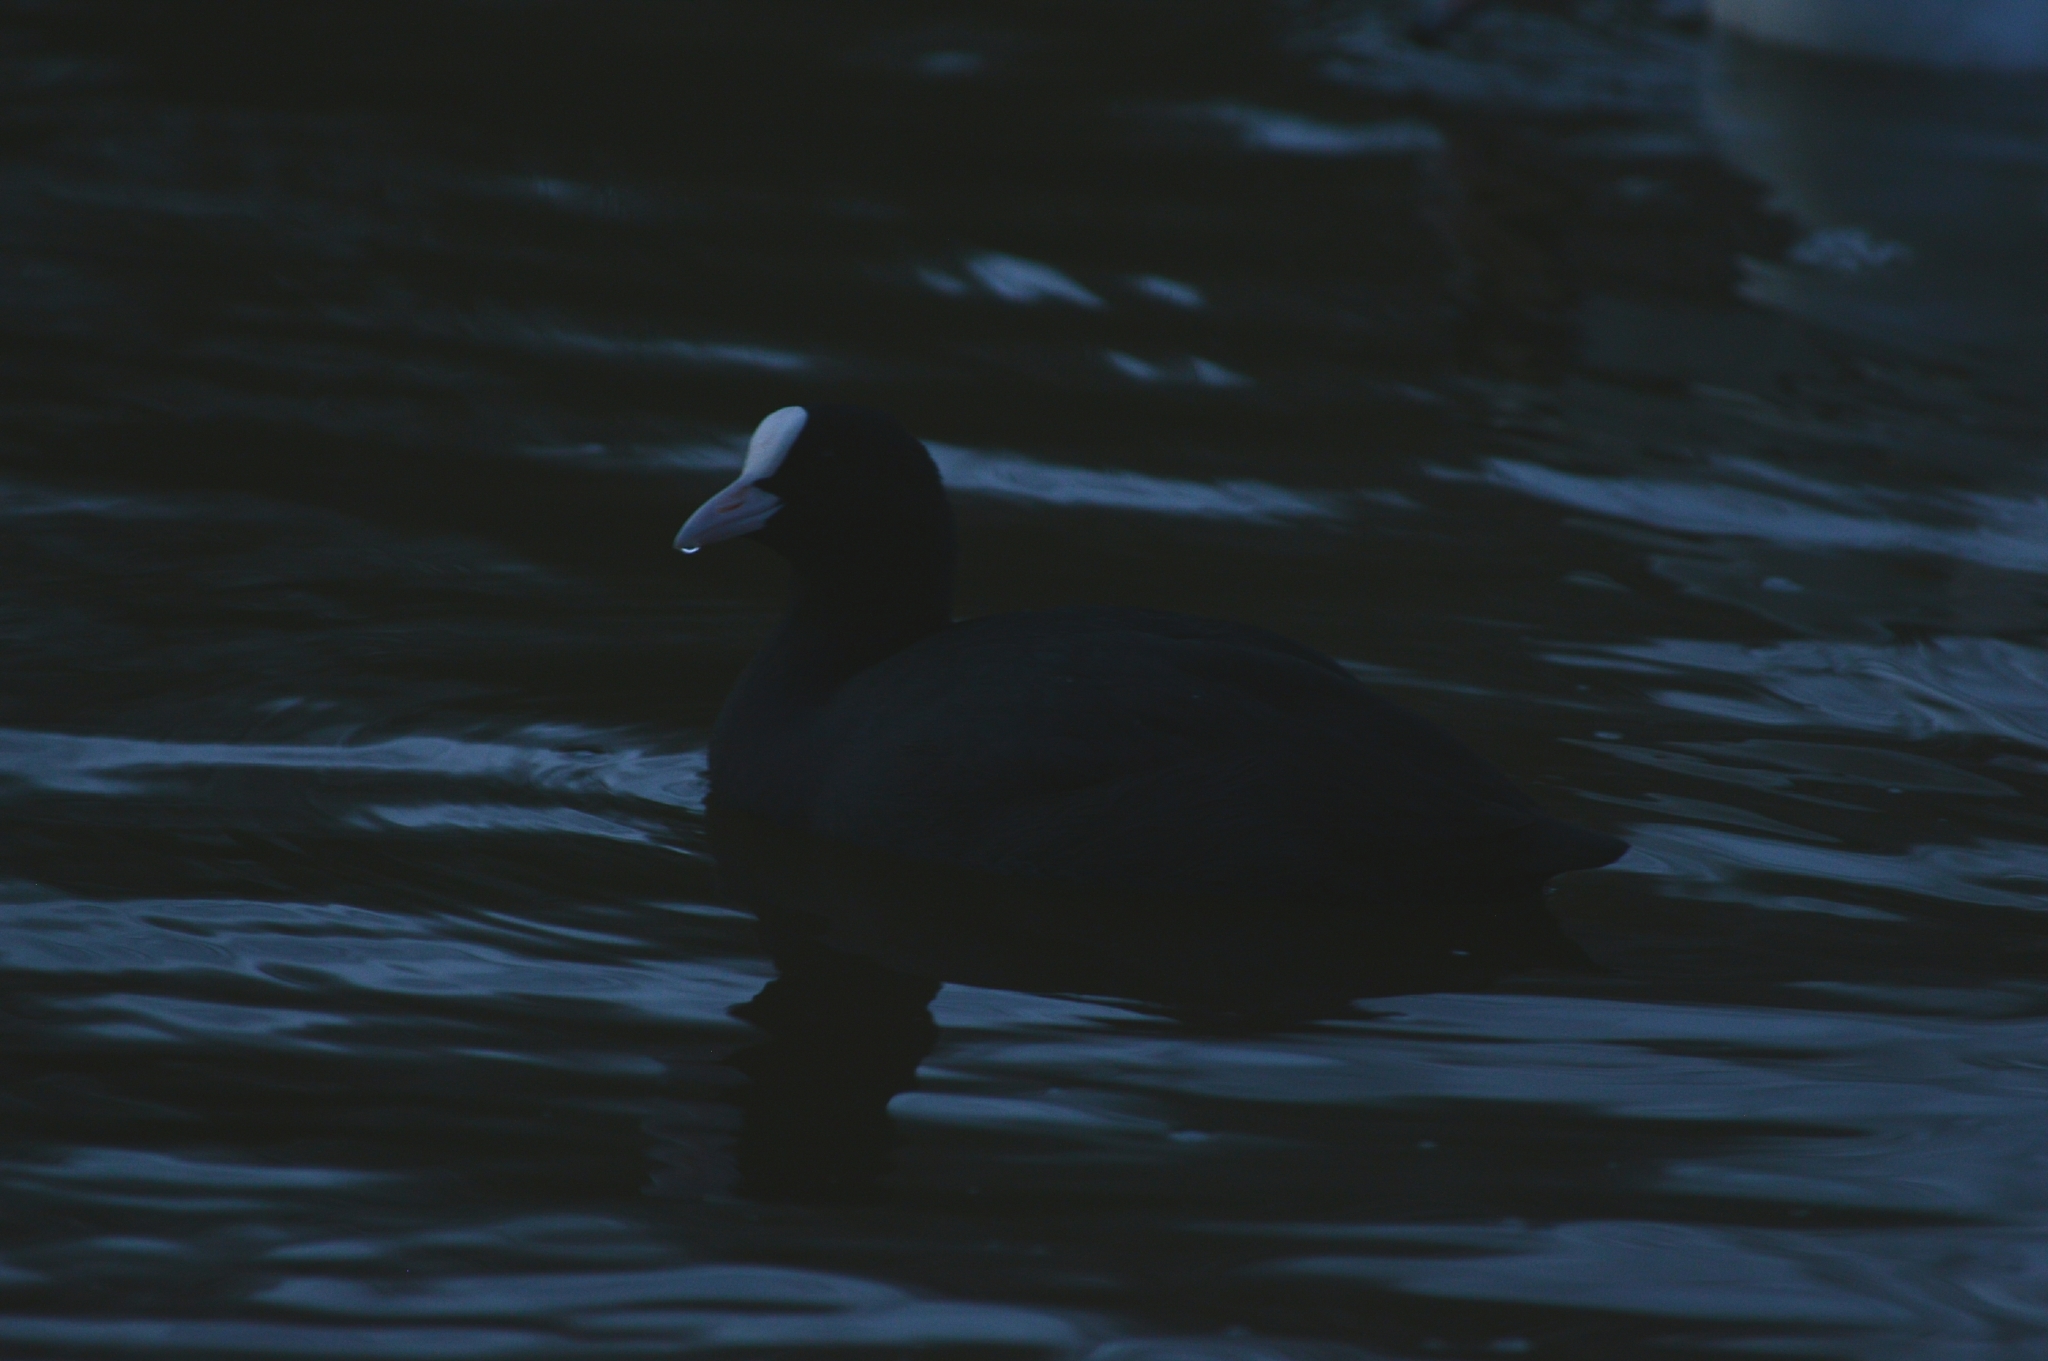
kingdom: Animalia
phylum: Chordata
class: Aves
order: Gruiformes
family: Rallidae
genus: Fulica
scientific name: Fulica atra
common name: Eurasian coot
